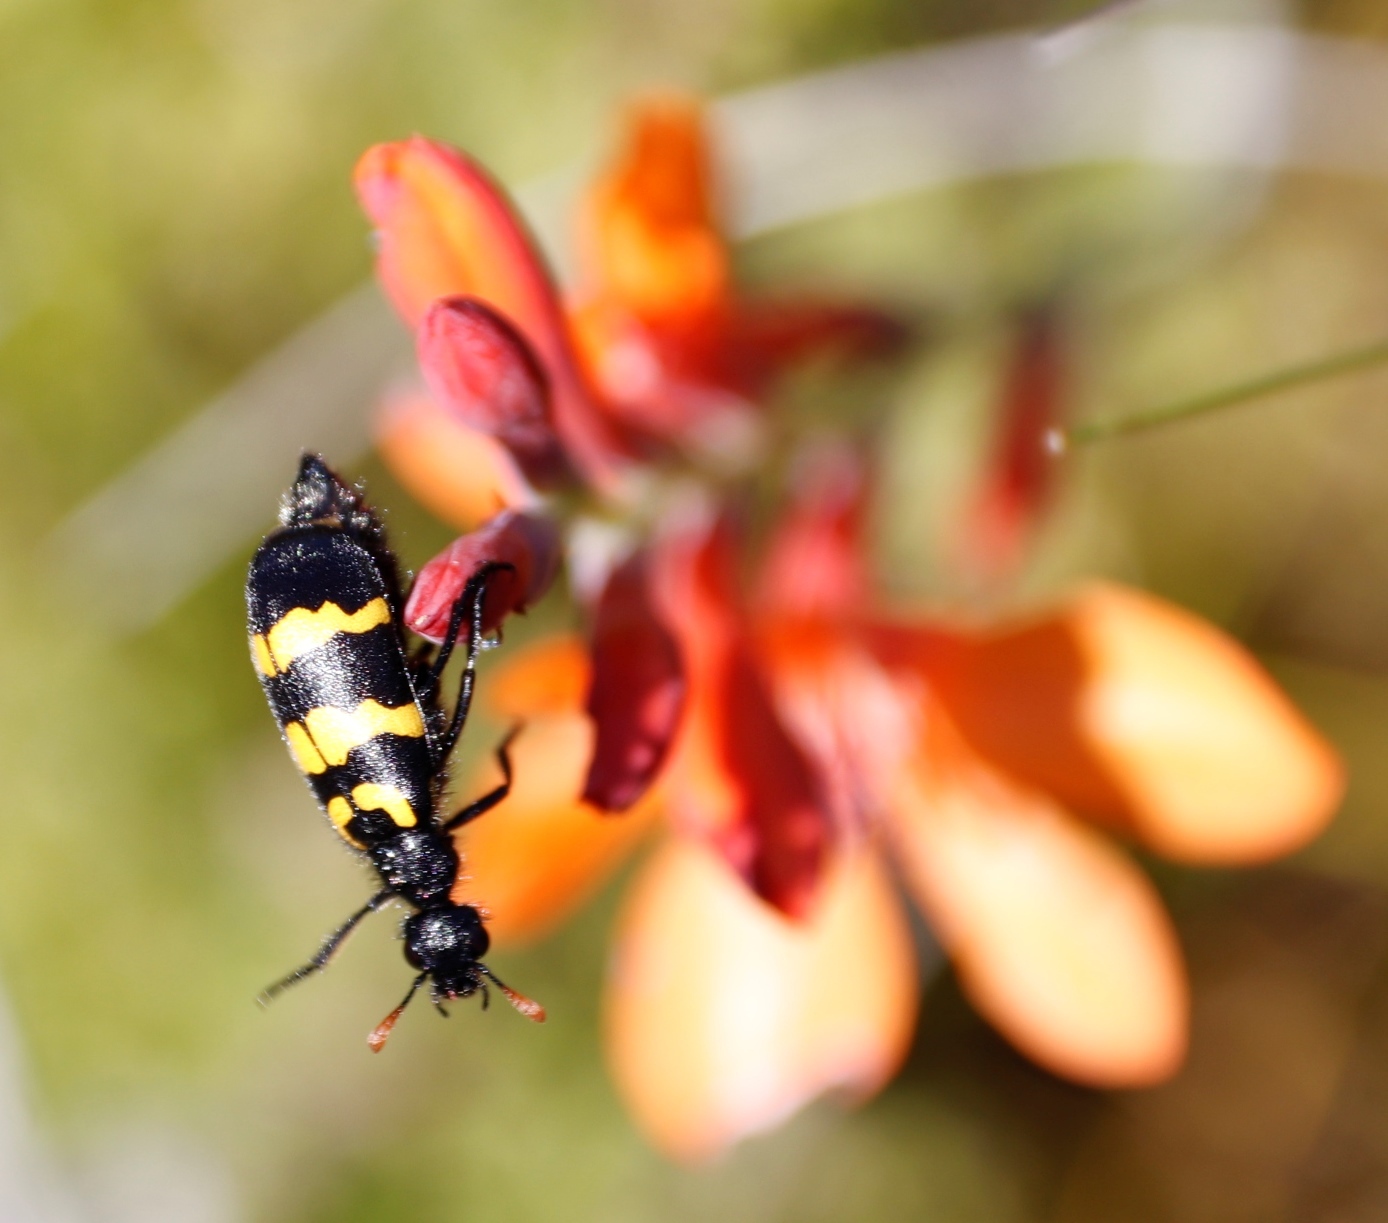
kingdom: Animalia
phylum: Arthropoda
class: Insecta
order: Coleoptera
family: Meloidae
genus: Meloe
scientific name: Meloe lunata
